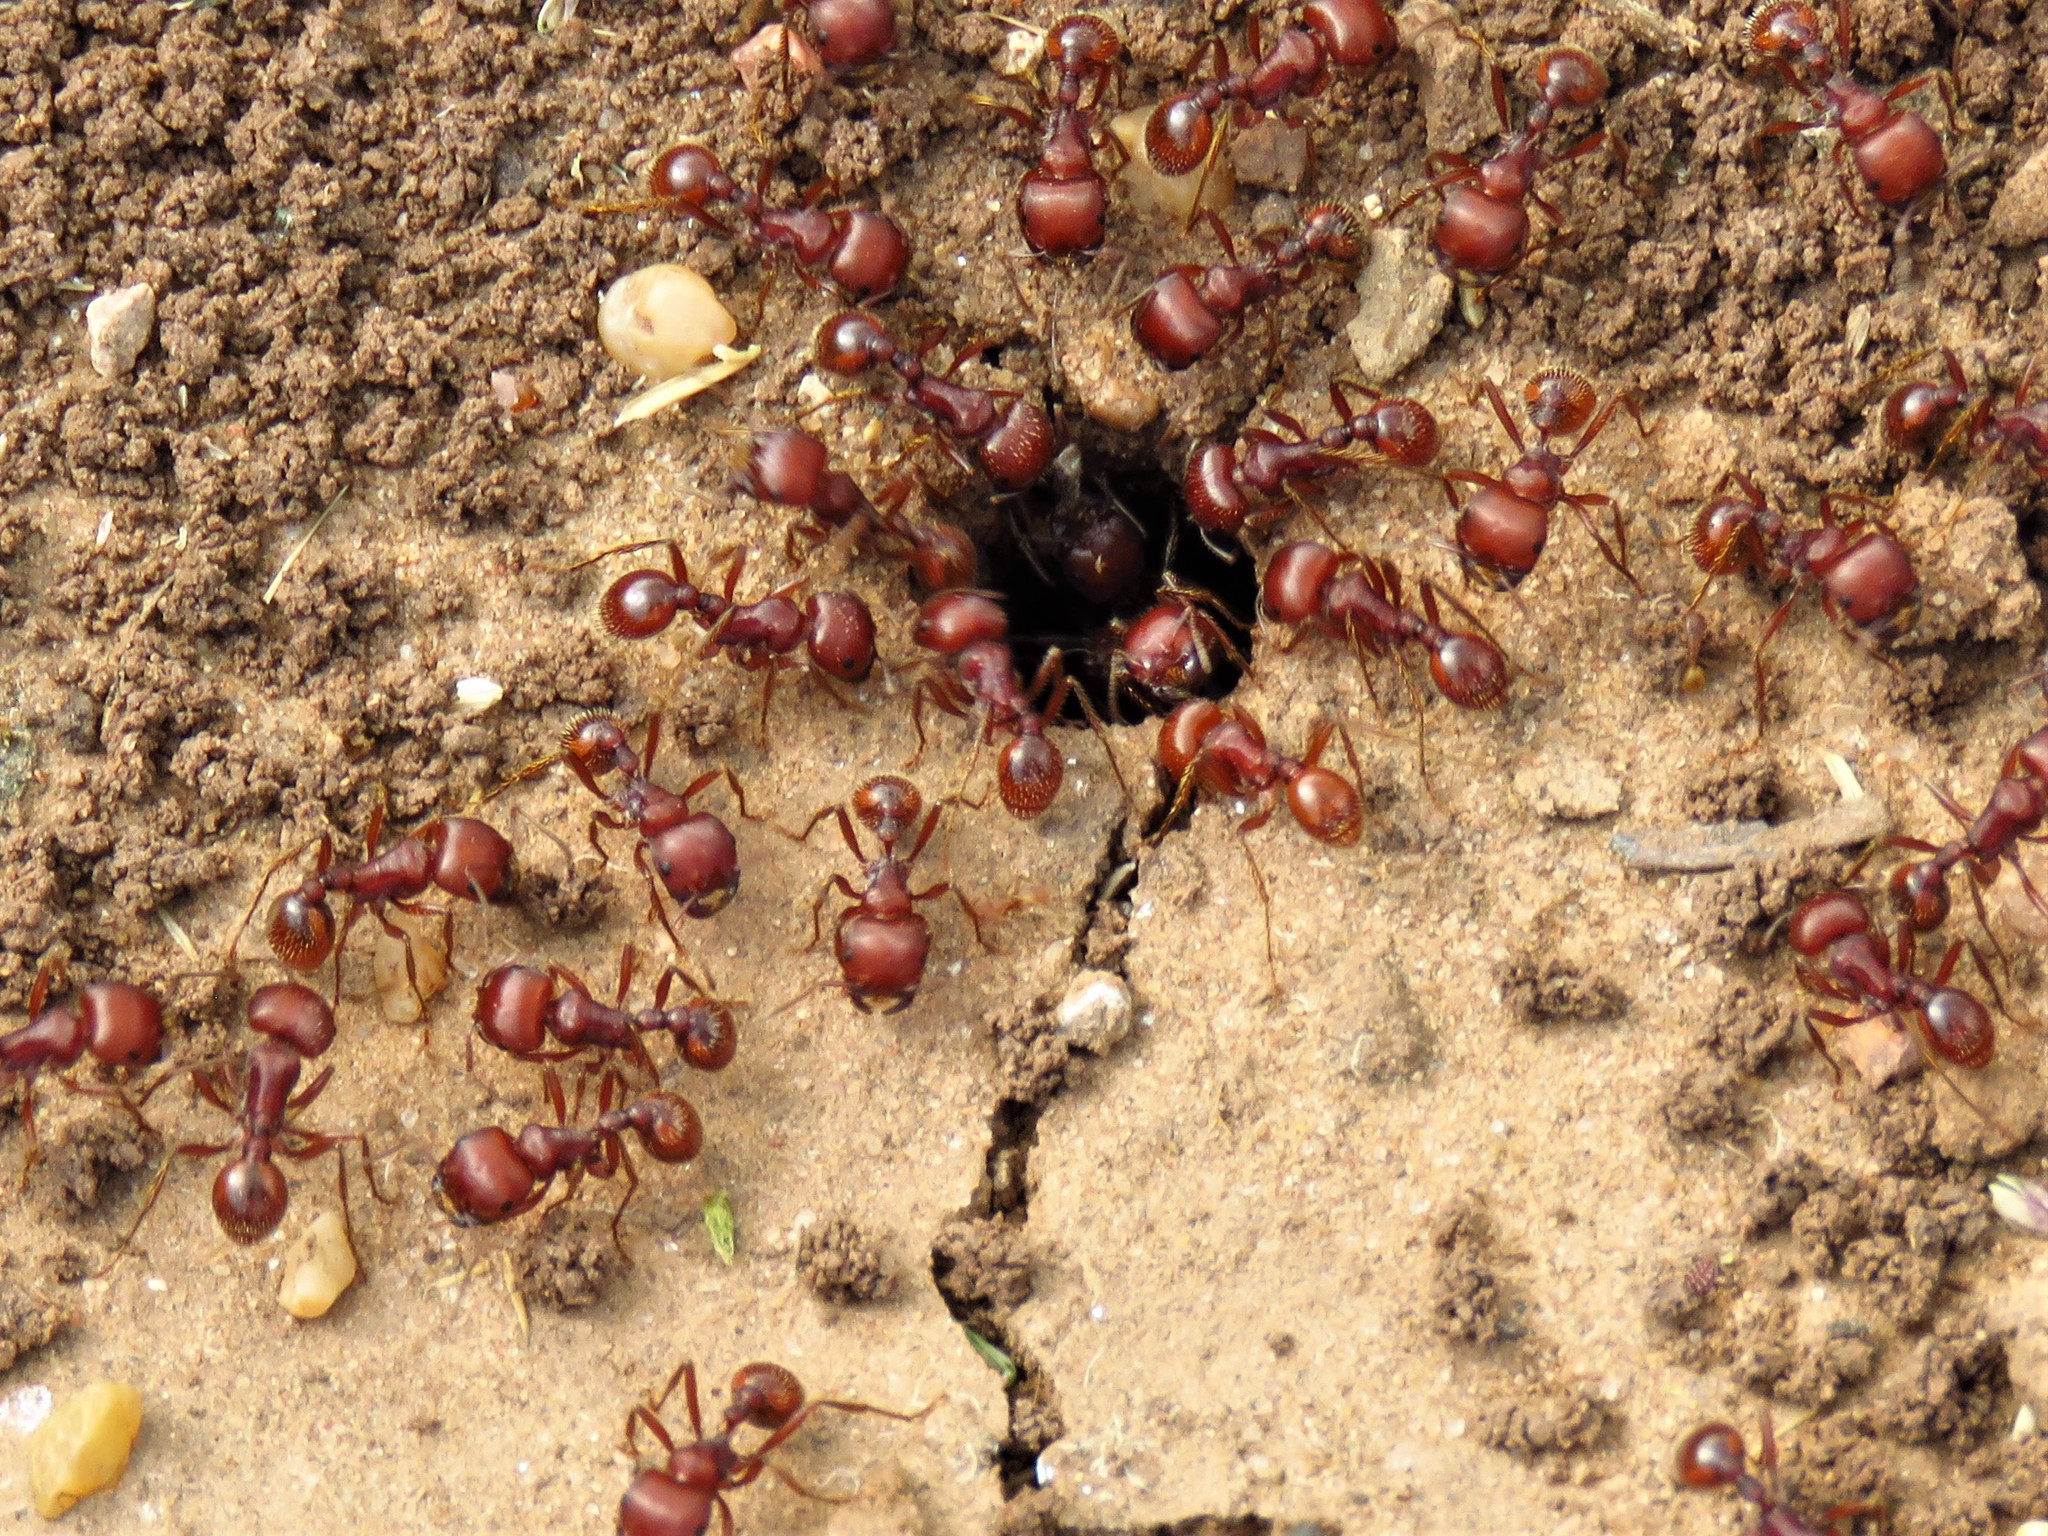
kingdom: Animalia
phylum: Arthropoda
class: Insecta
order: Hymenoptera
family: Formicidae
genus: Pogonomyrmex
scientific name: Pogonomyrmex barbatus
